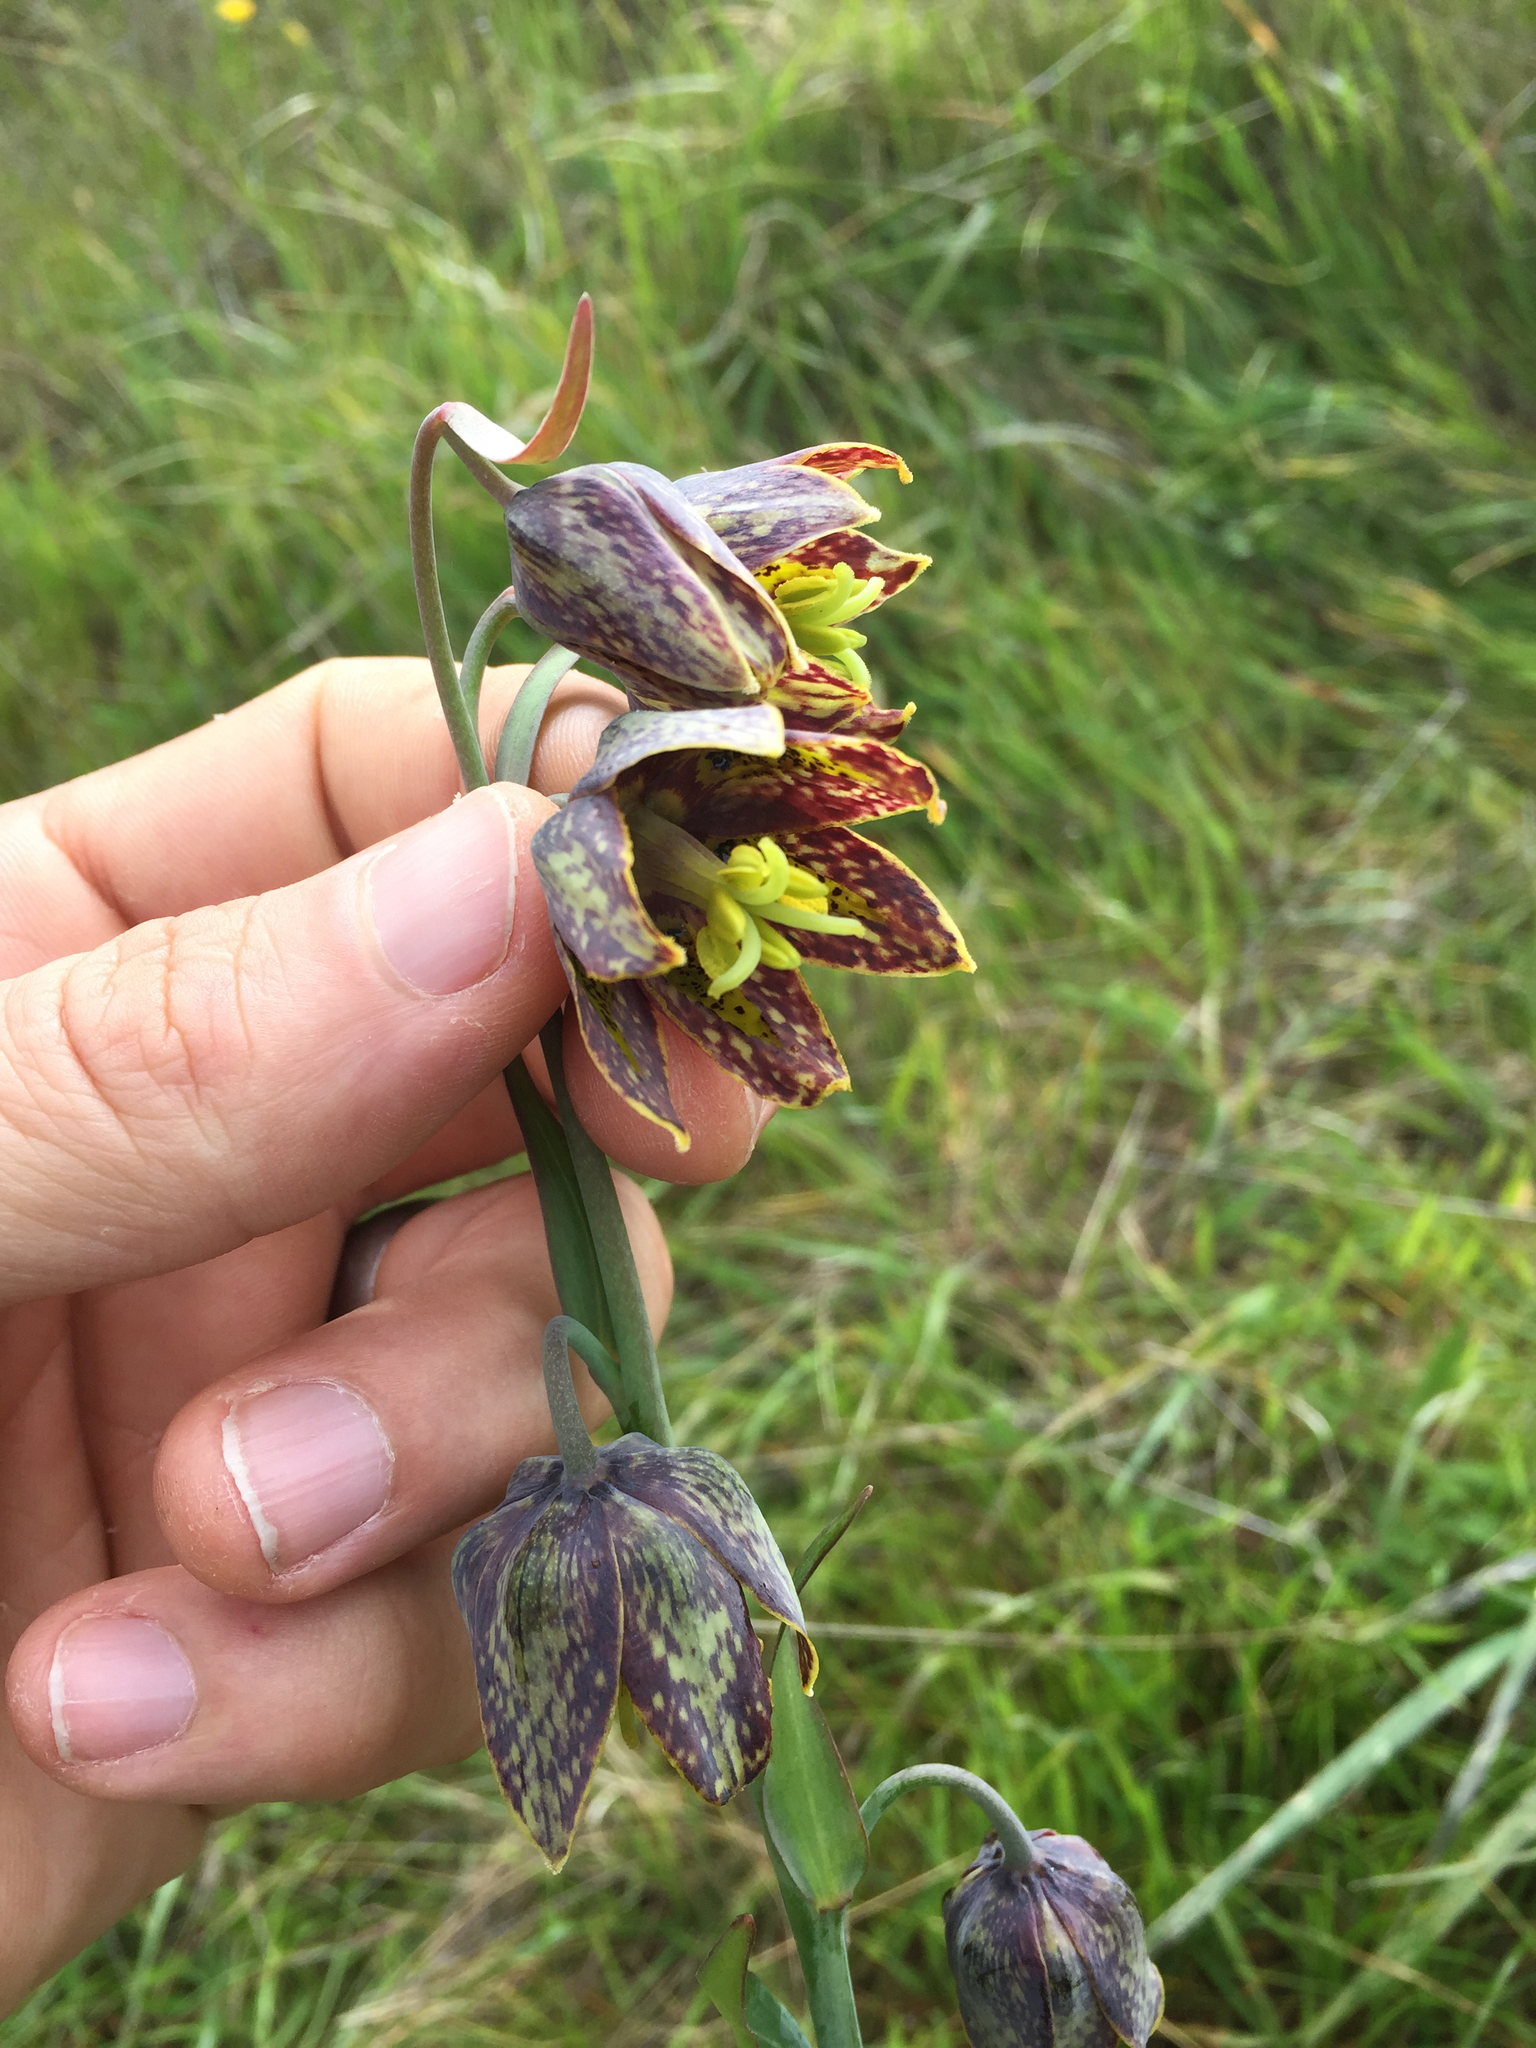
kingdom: Plantae
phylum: Tracheophyta
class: Liliopsida
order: Liliales
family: Liliaceae
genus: Fritillaria
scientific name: Fritillaria affinis
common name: Ojai fritillary
